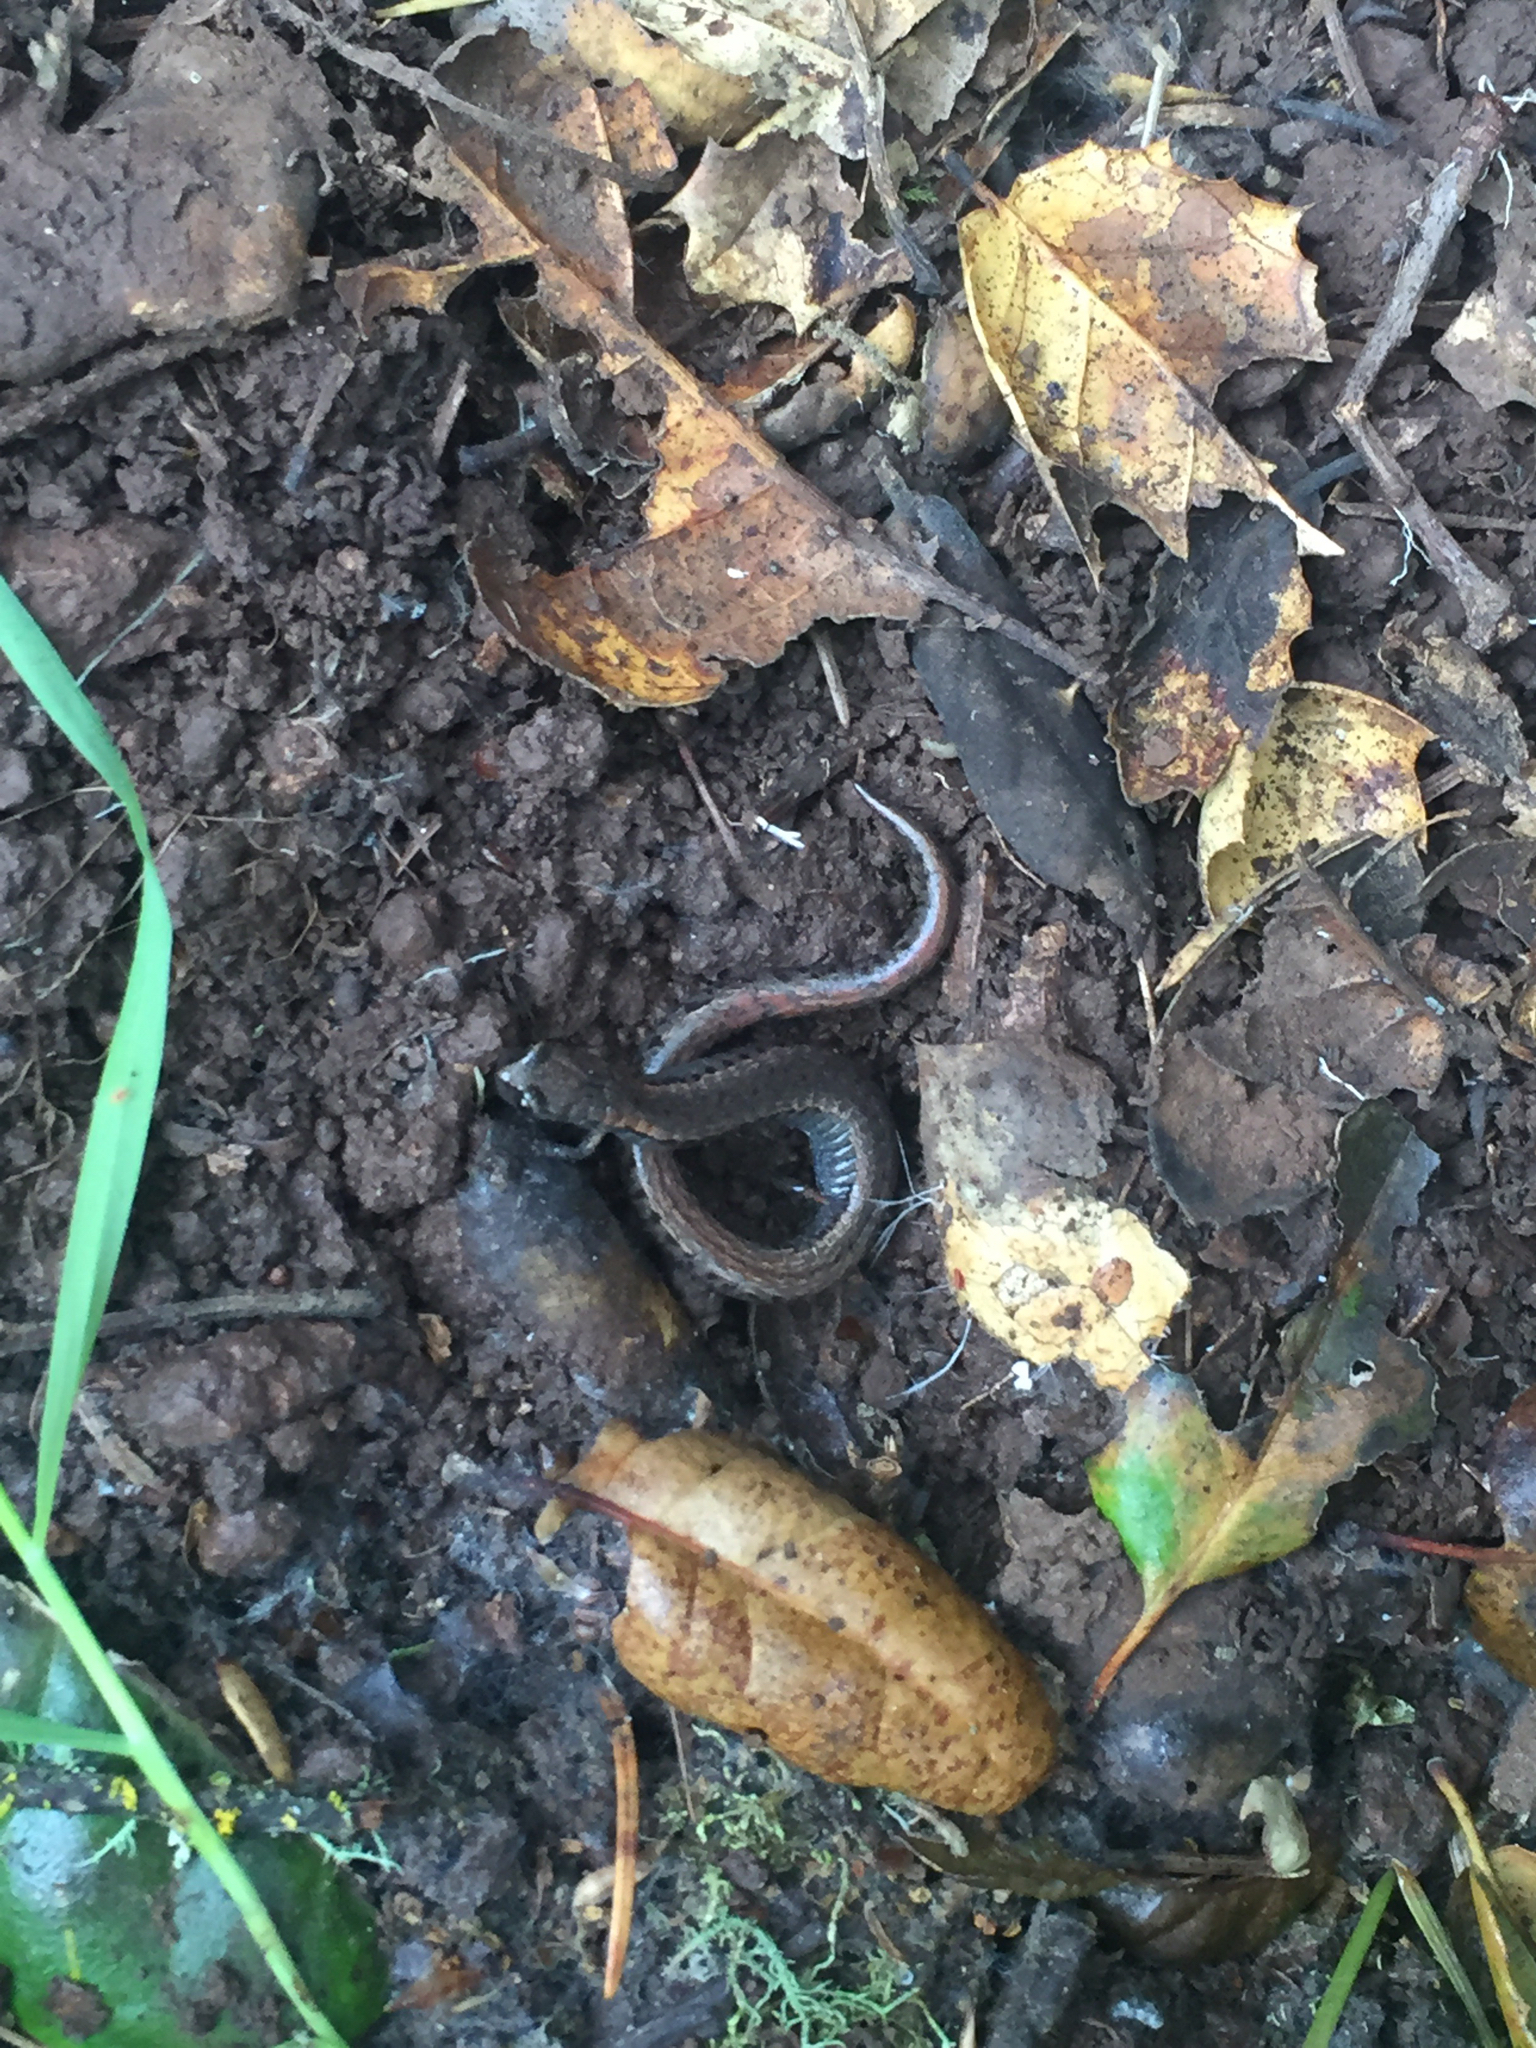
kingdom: Animalia
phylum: Chordata
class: Amphibia
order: Caudata
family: Plethodontidae
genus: Batrachoseps
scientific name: Batrachoseps attenuatus
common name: California slender salamander
